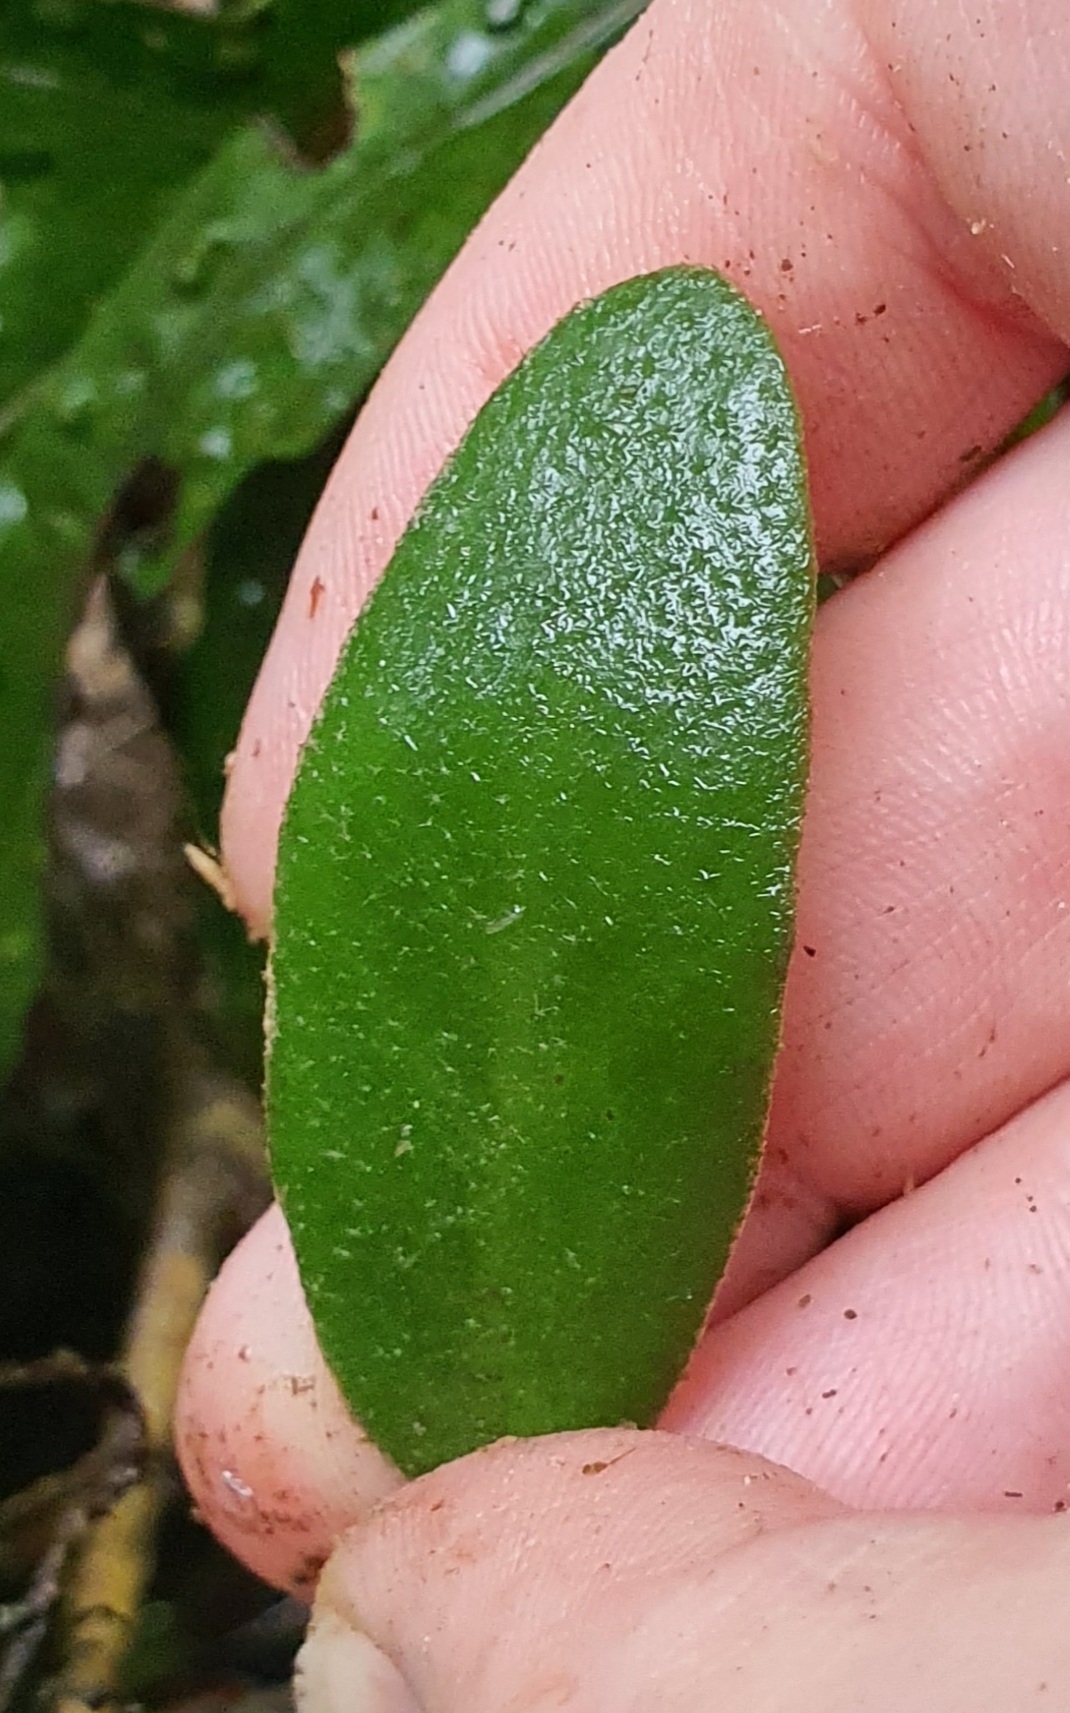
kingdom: Plantae
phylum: Tracheophyta
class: Polypodiopsida
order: Polypodiales
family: Polypodiaceae
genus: Pyrrosia
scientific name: Pyrrosia eleagnifolia
